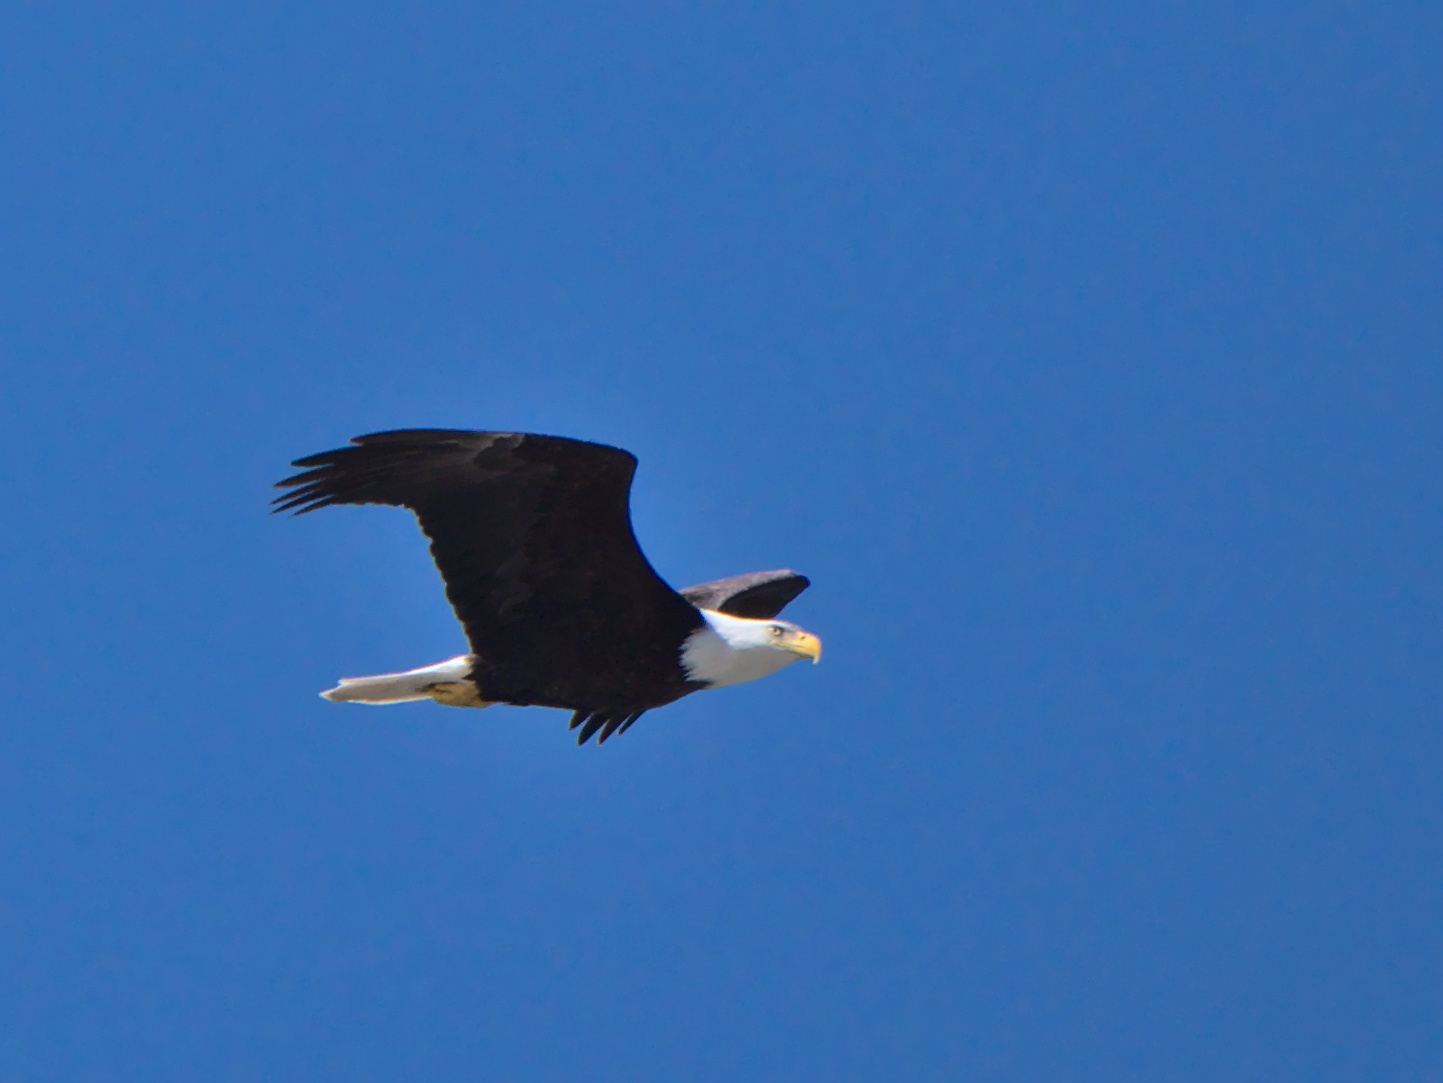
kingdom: Animalia
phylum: Chordata
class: Aves
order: Accipitriformes
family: Accipitridae
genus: Haliaeetus
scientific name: Haliaeetus leucocephalus
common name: Bald eagle
